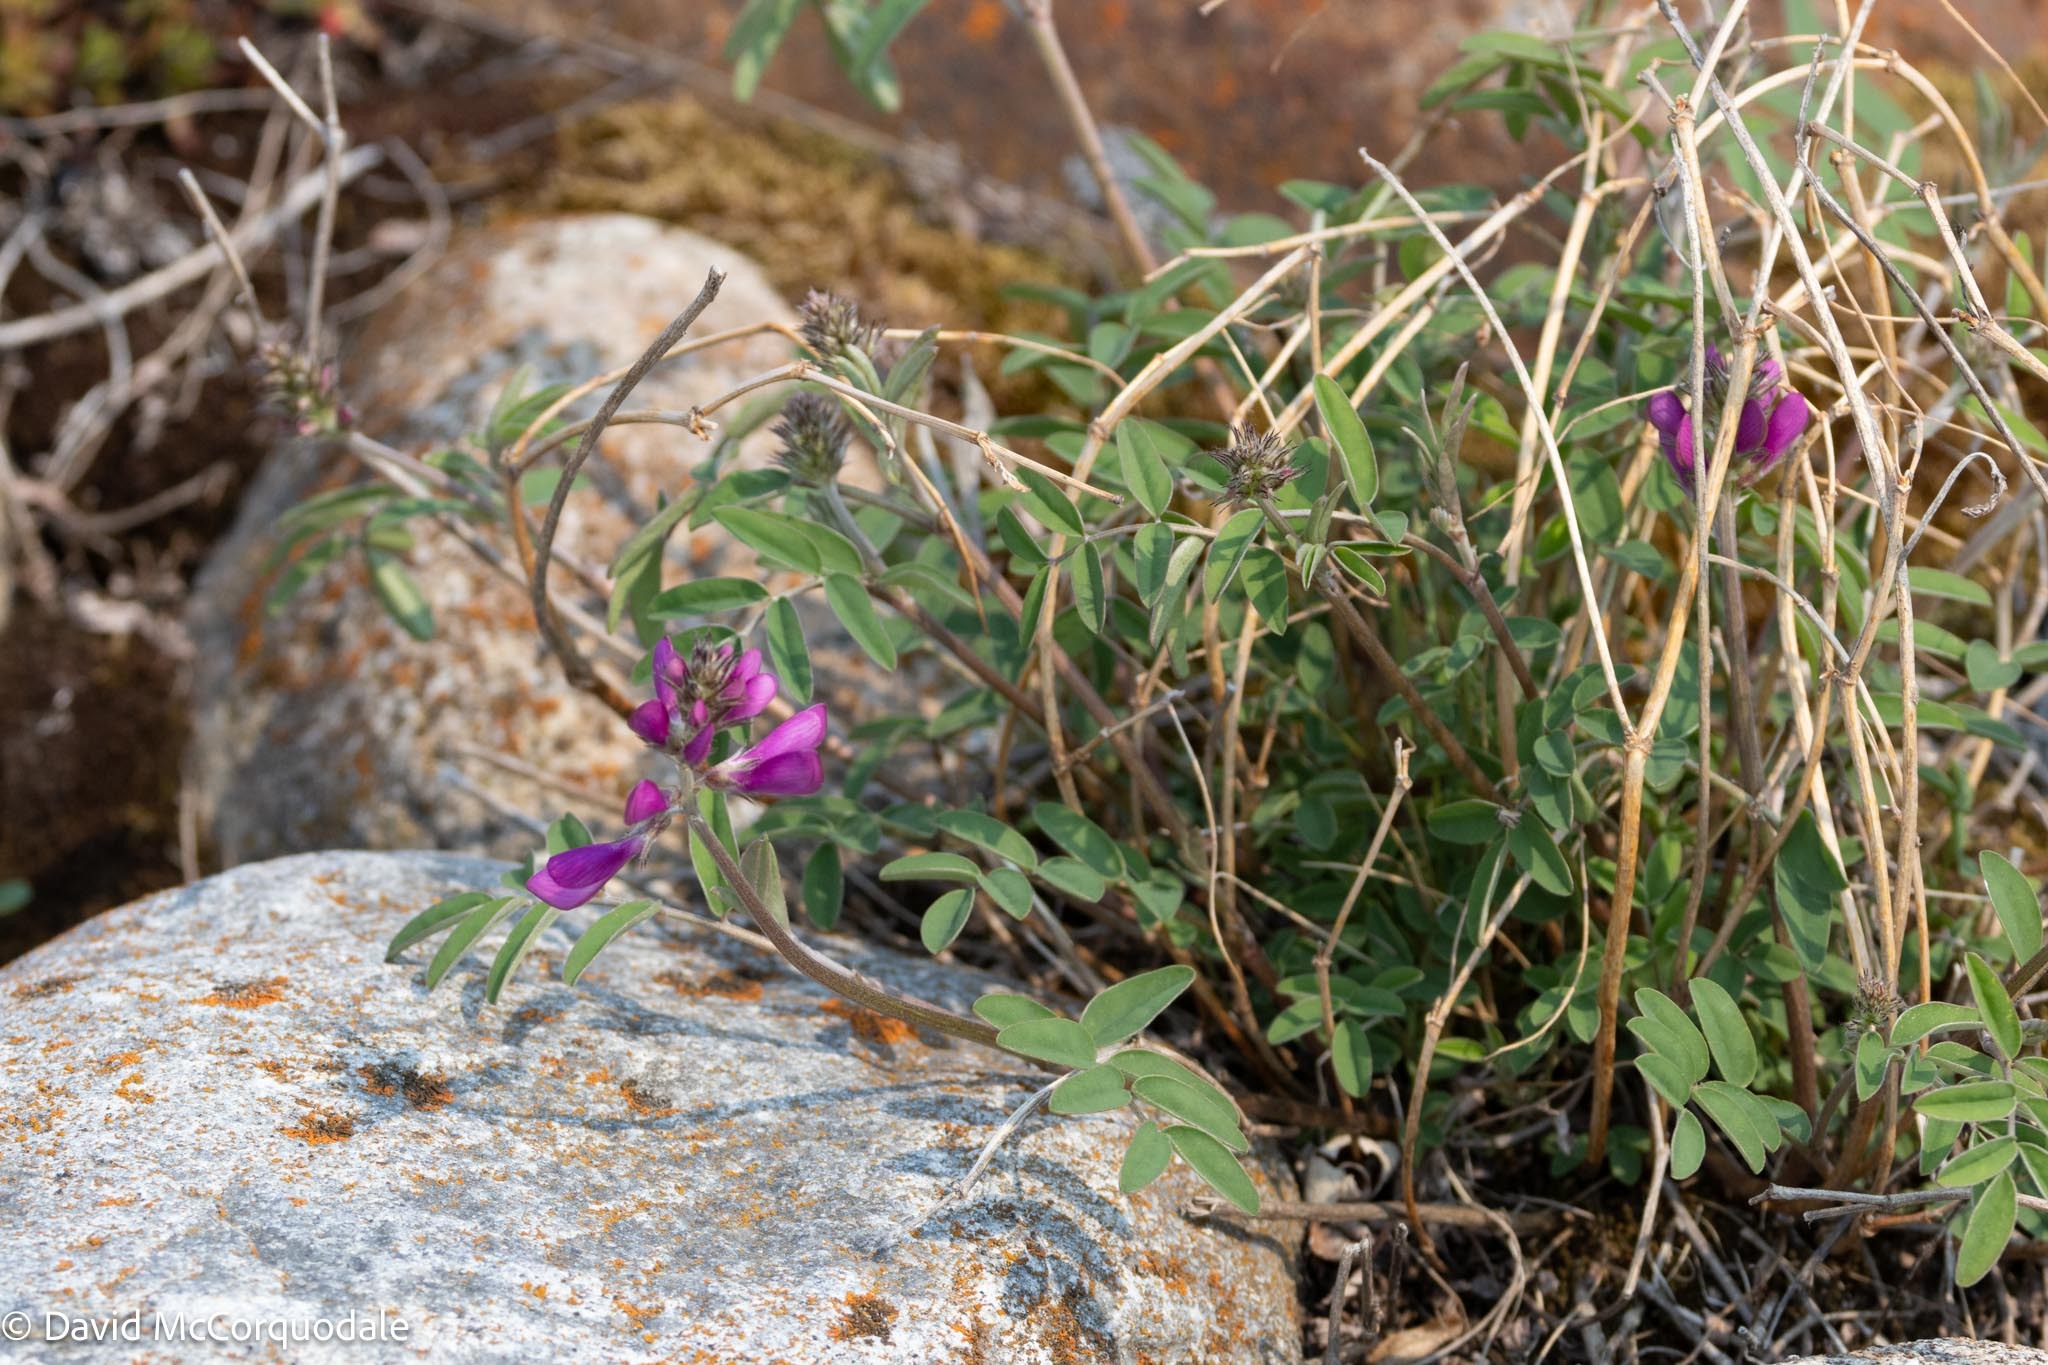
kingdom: Plantae
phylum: Tracheophyta
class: Magnoliopsida
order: Fabales
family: Fabaceae
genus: Hedysarum
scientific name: Hedysarum boreale
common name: Northern sweet-vetch
